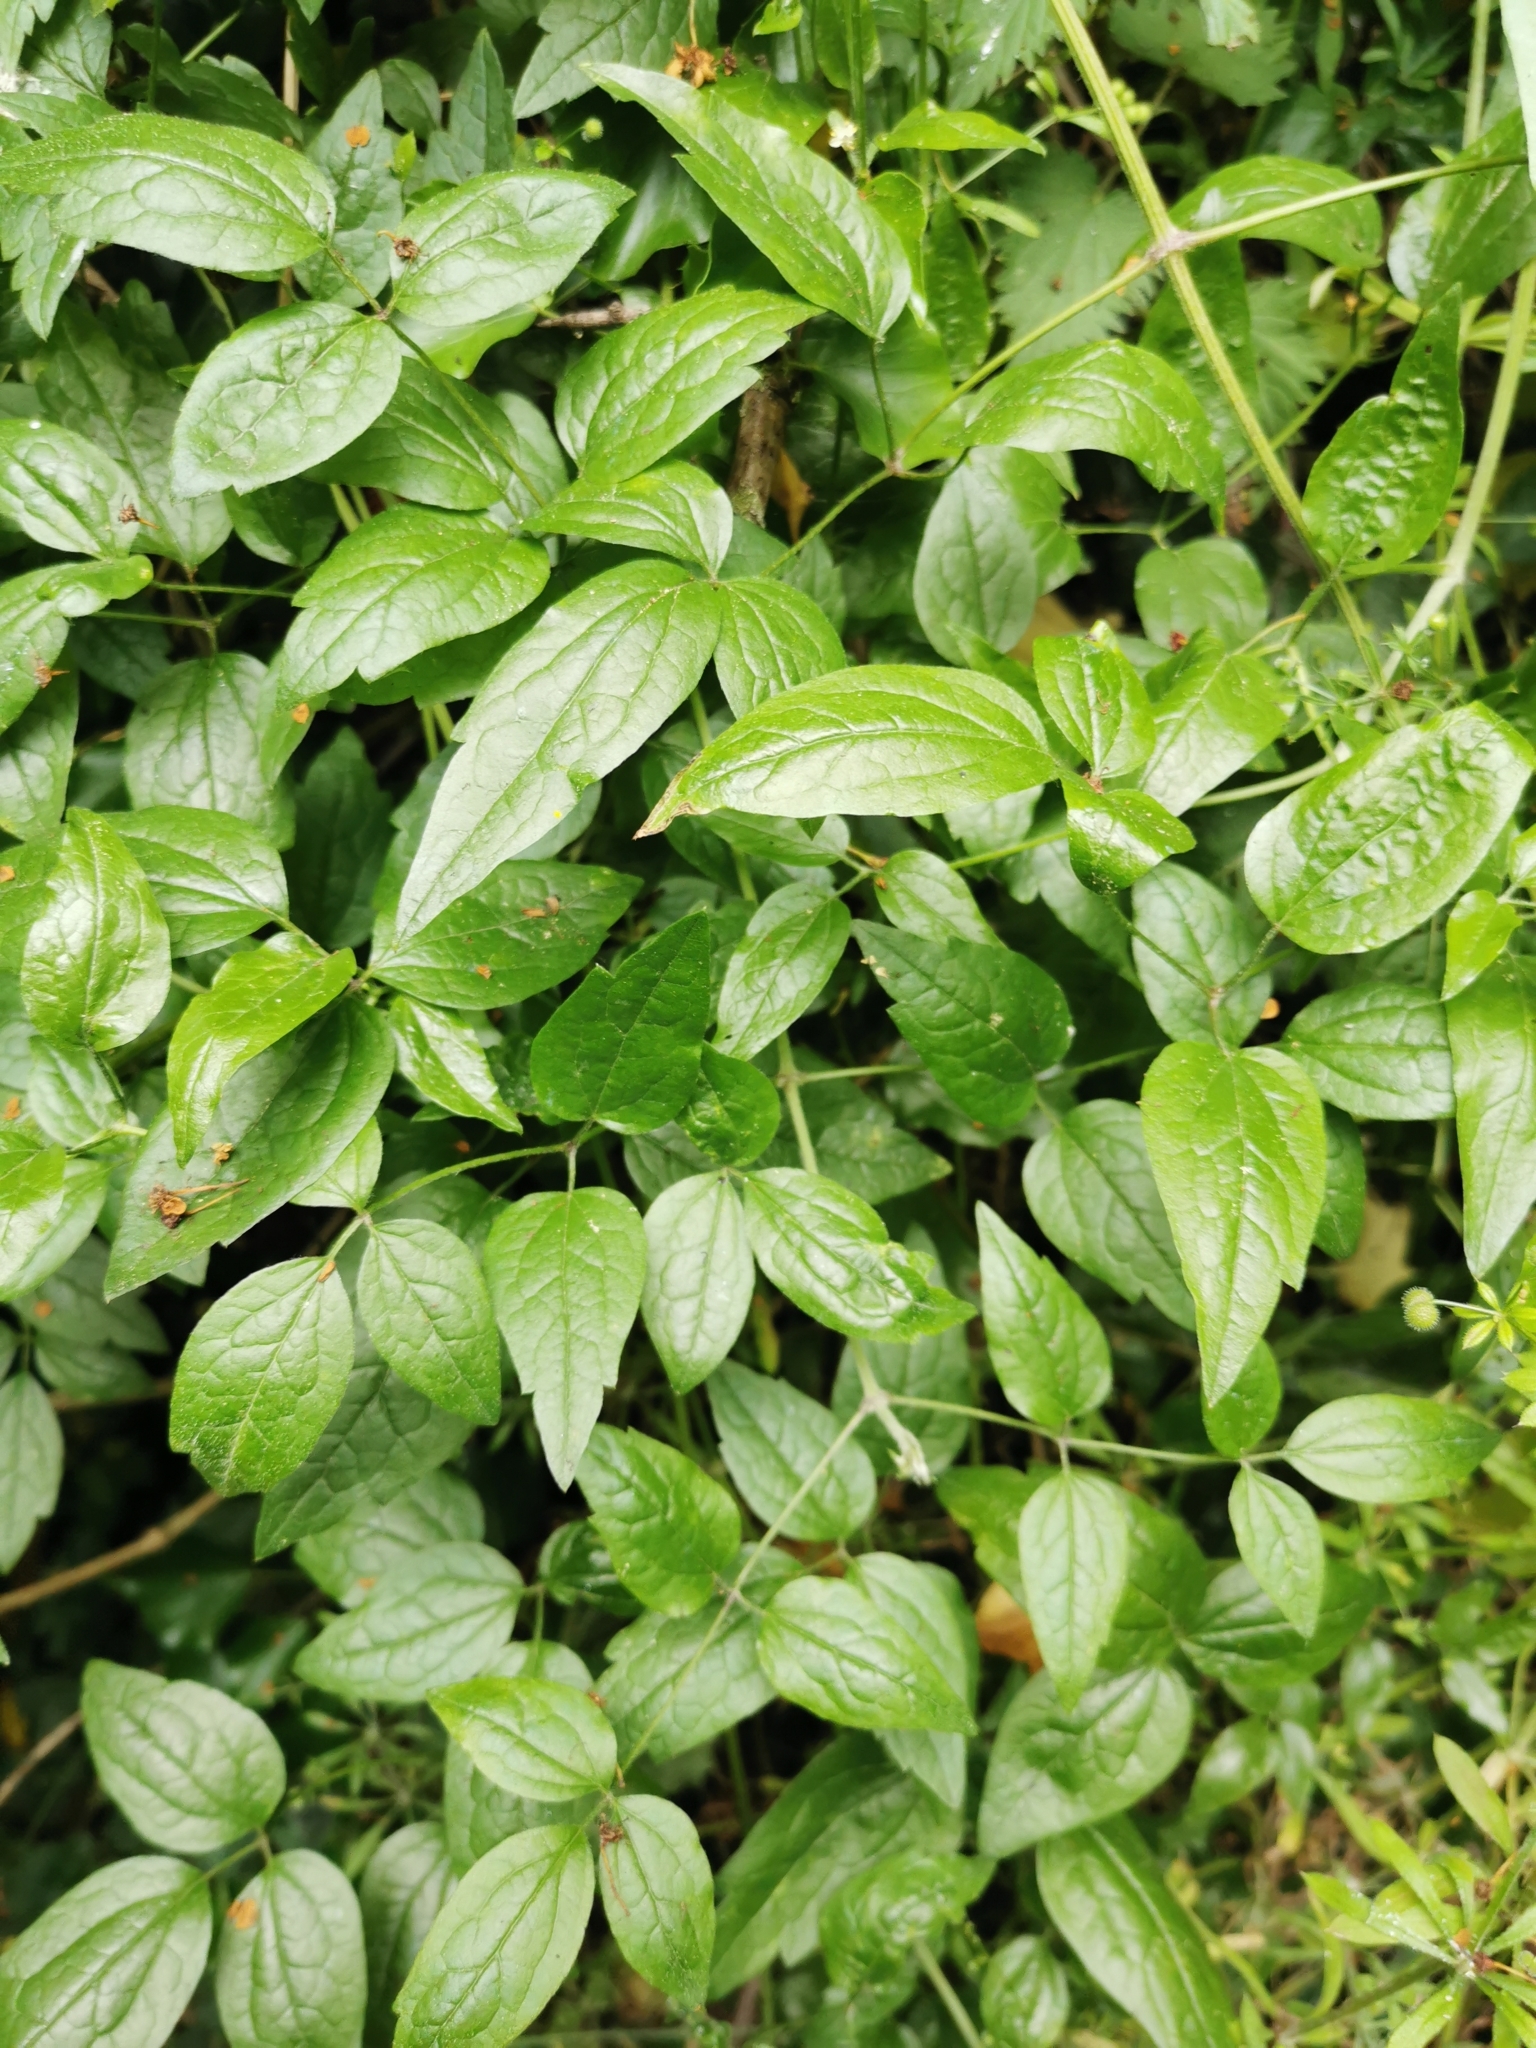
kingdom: Plantae
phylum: Tracheophyta
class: Magnoliopsida
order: Ranunculales
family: Ranunculaceae
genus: Clematis
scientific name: Clematis vitalba
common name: Evergreen clematis
